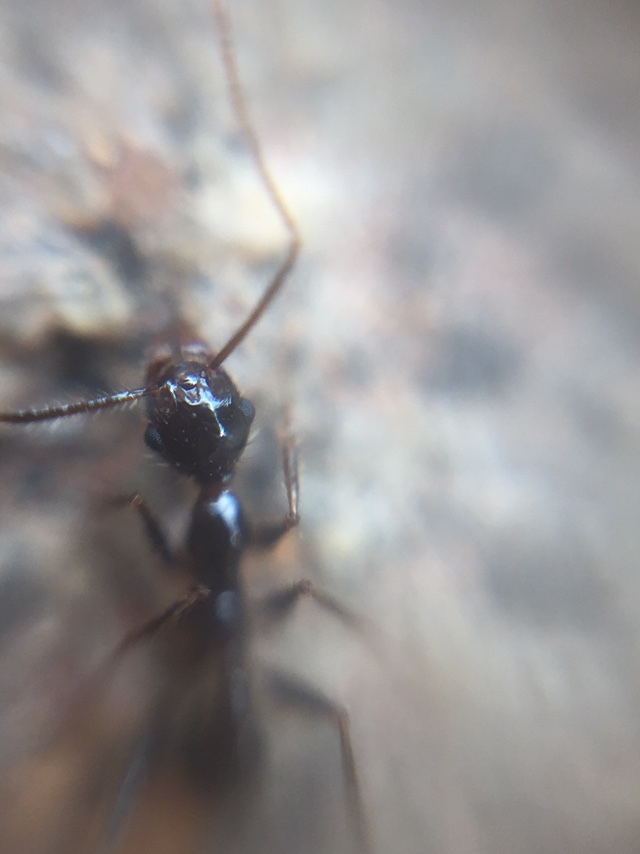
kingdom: Animalia
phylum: Arthropoda
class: Insecta
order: Hymenoptera
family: Formicidae
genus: Pheidole
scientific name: Pheidole latinoda
